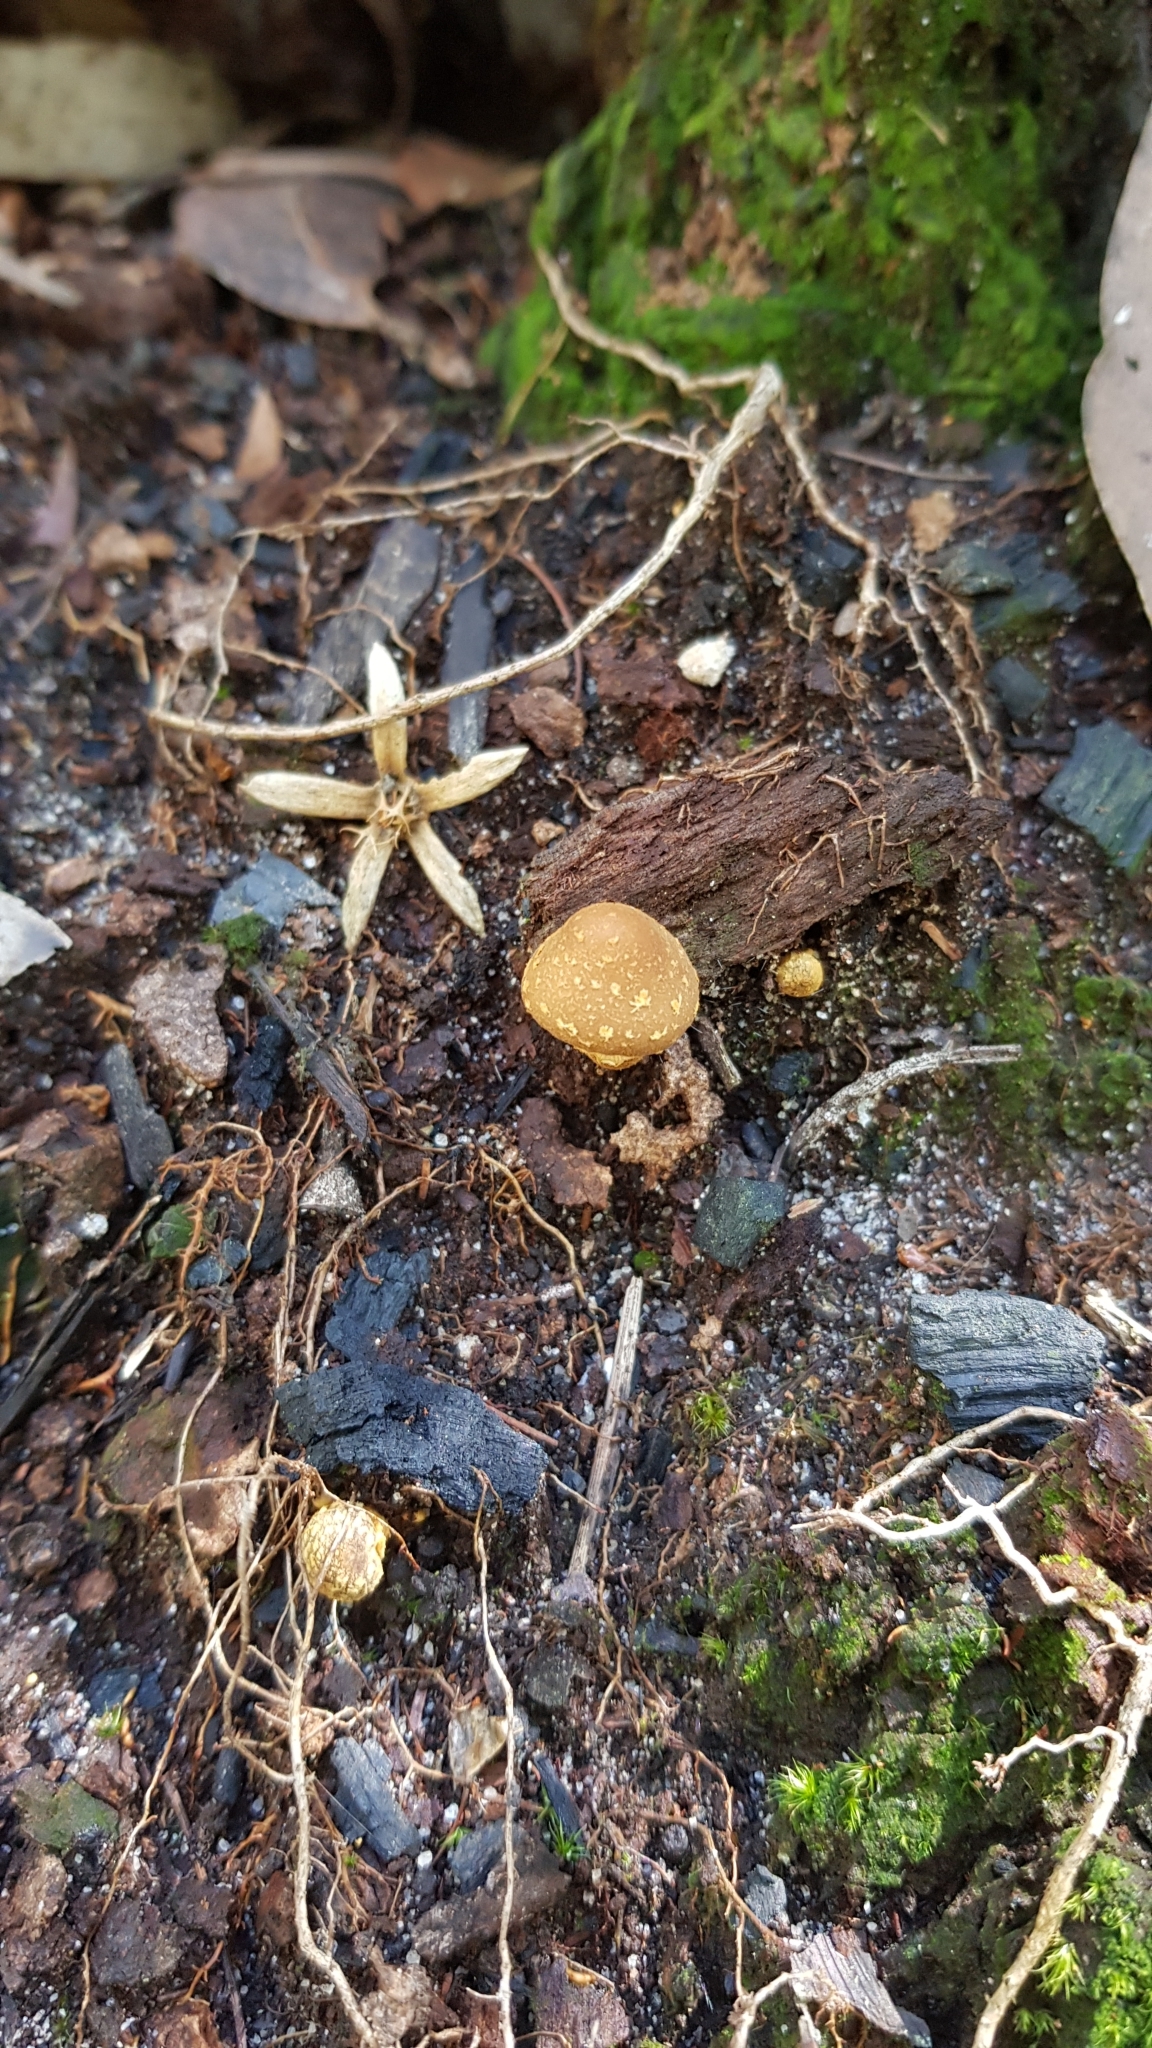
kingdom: Fungi
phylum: Basidiomycota
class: Agaricomycetes
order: Agaricales
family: Bolbitiaceae
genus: Descolea
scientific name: Descolea recedens
